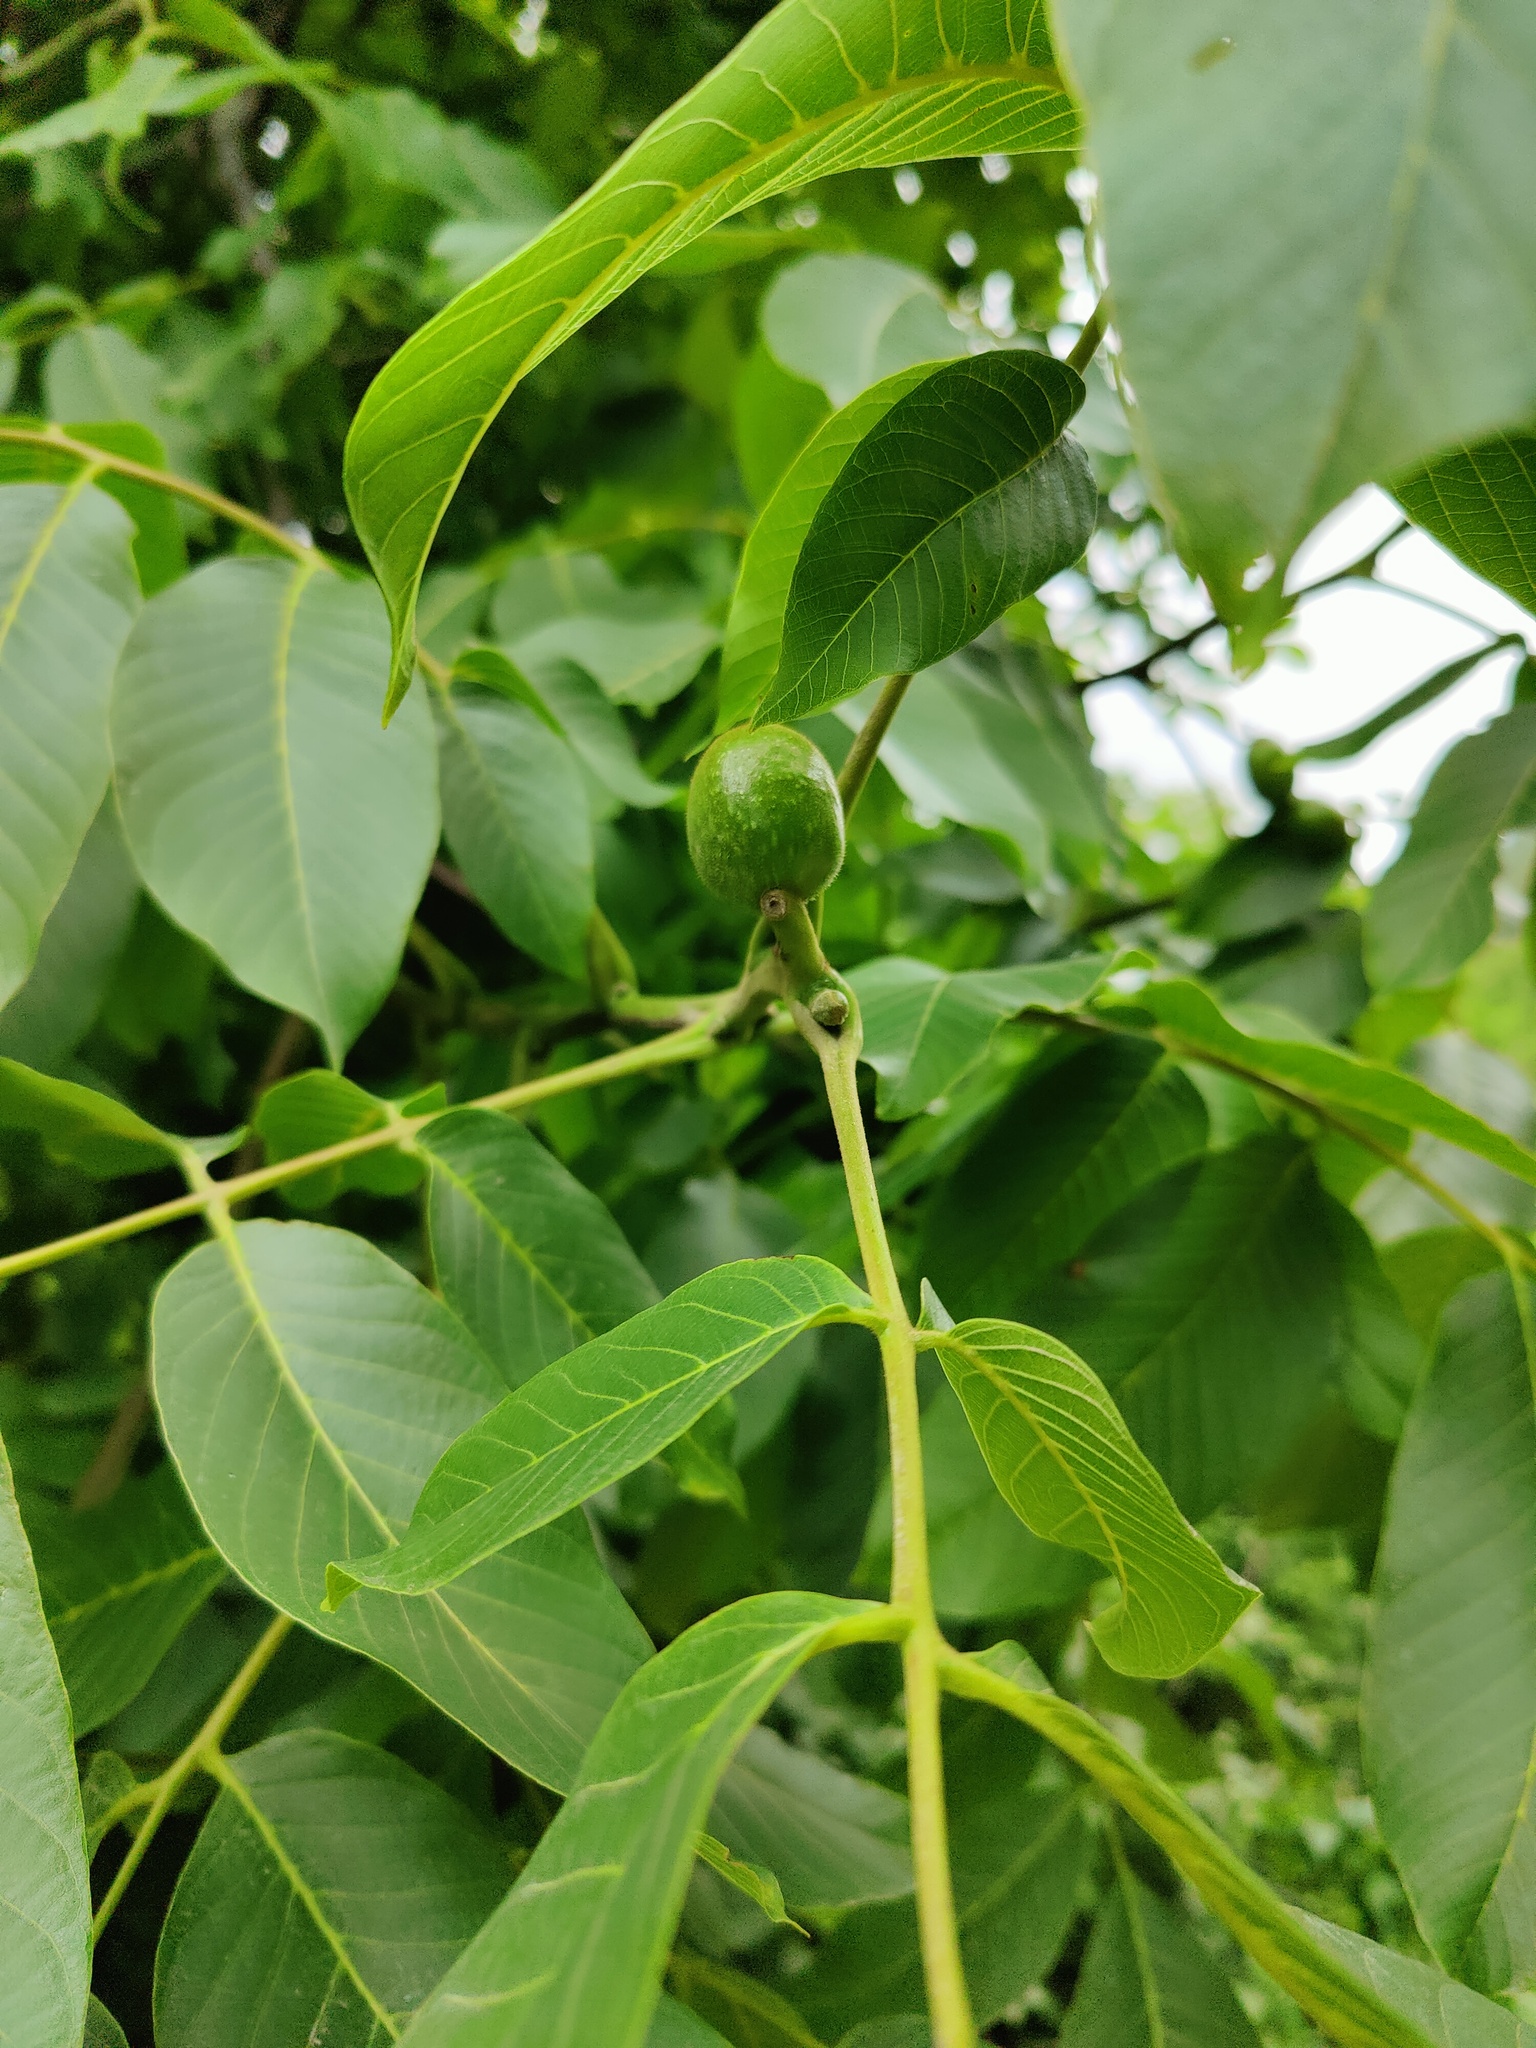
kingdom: Plantae
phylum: Tracheophyta
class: Magnoliopsida
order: Fagales
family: Juglandaceae
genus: Juglans
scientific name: Juglans regia
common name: Walnut
